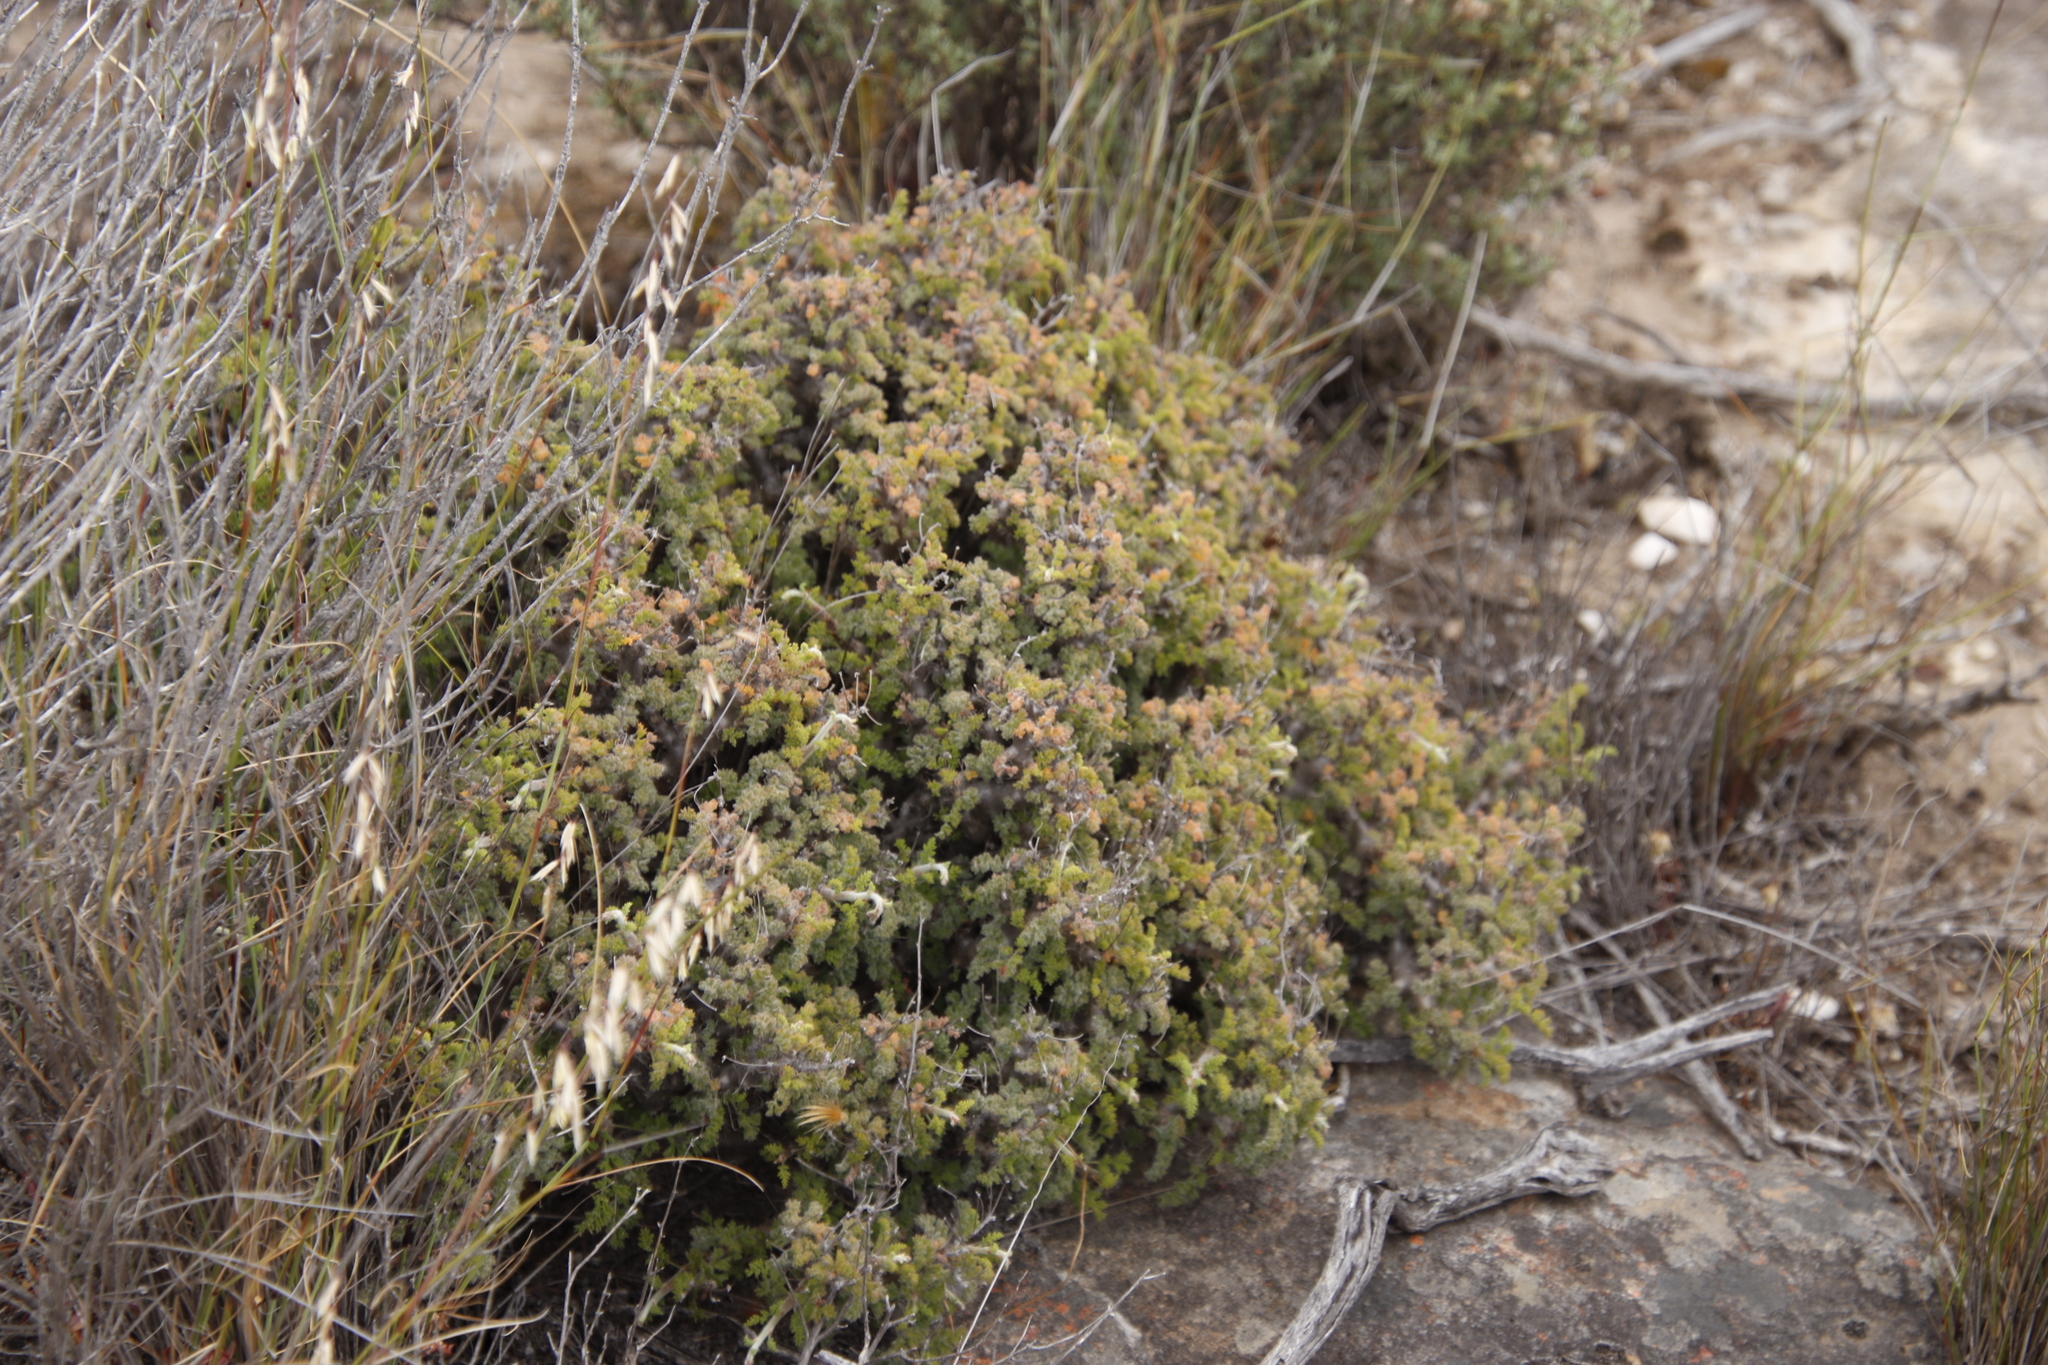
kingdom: Plantae
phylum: Tracheophyta
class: Magnoliopsida
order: Geraniales
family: Geraniaceae
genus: Pelargonium
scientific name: Pelargonium alternans
